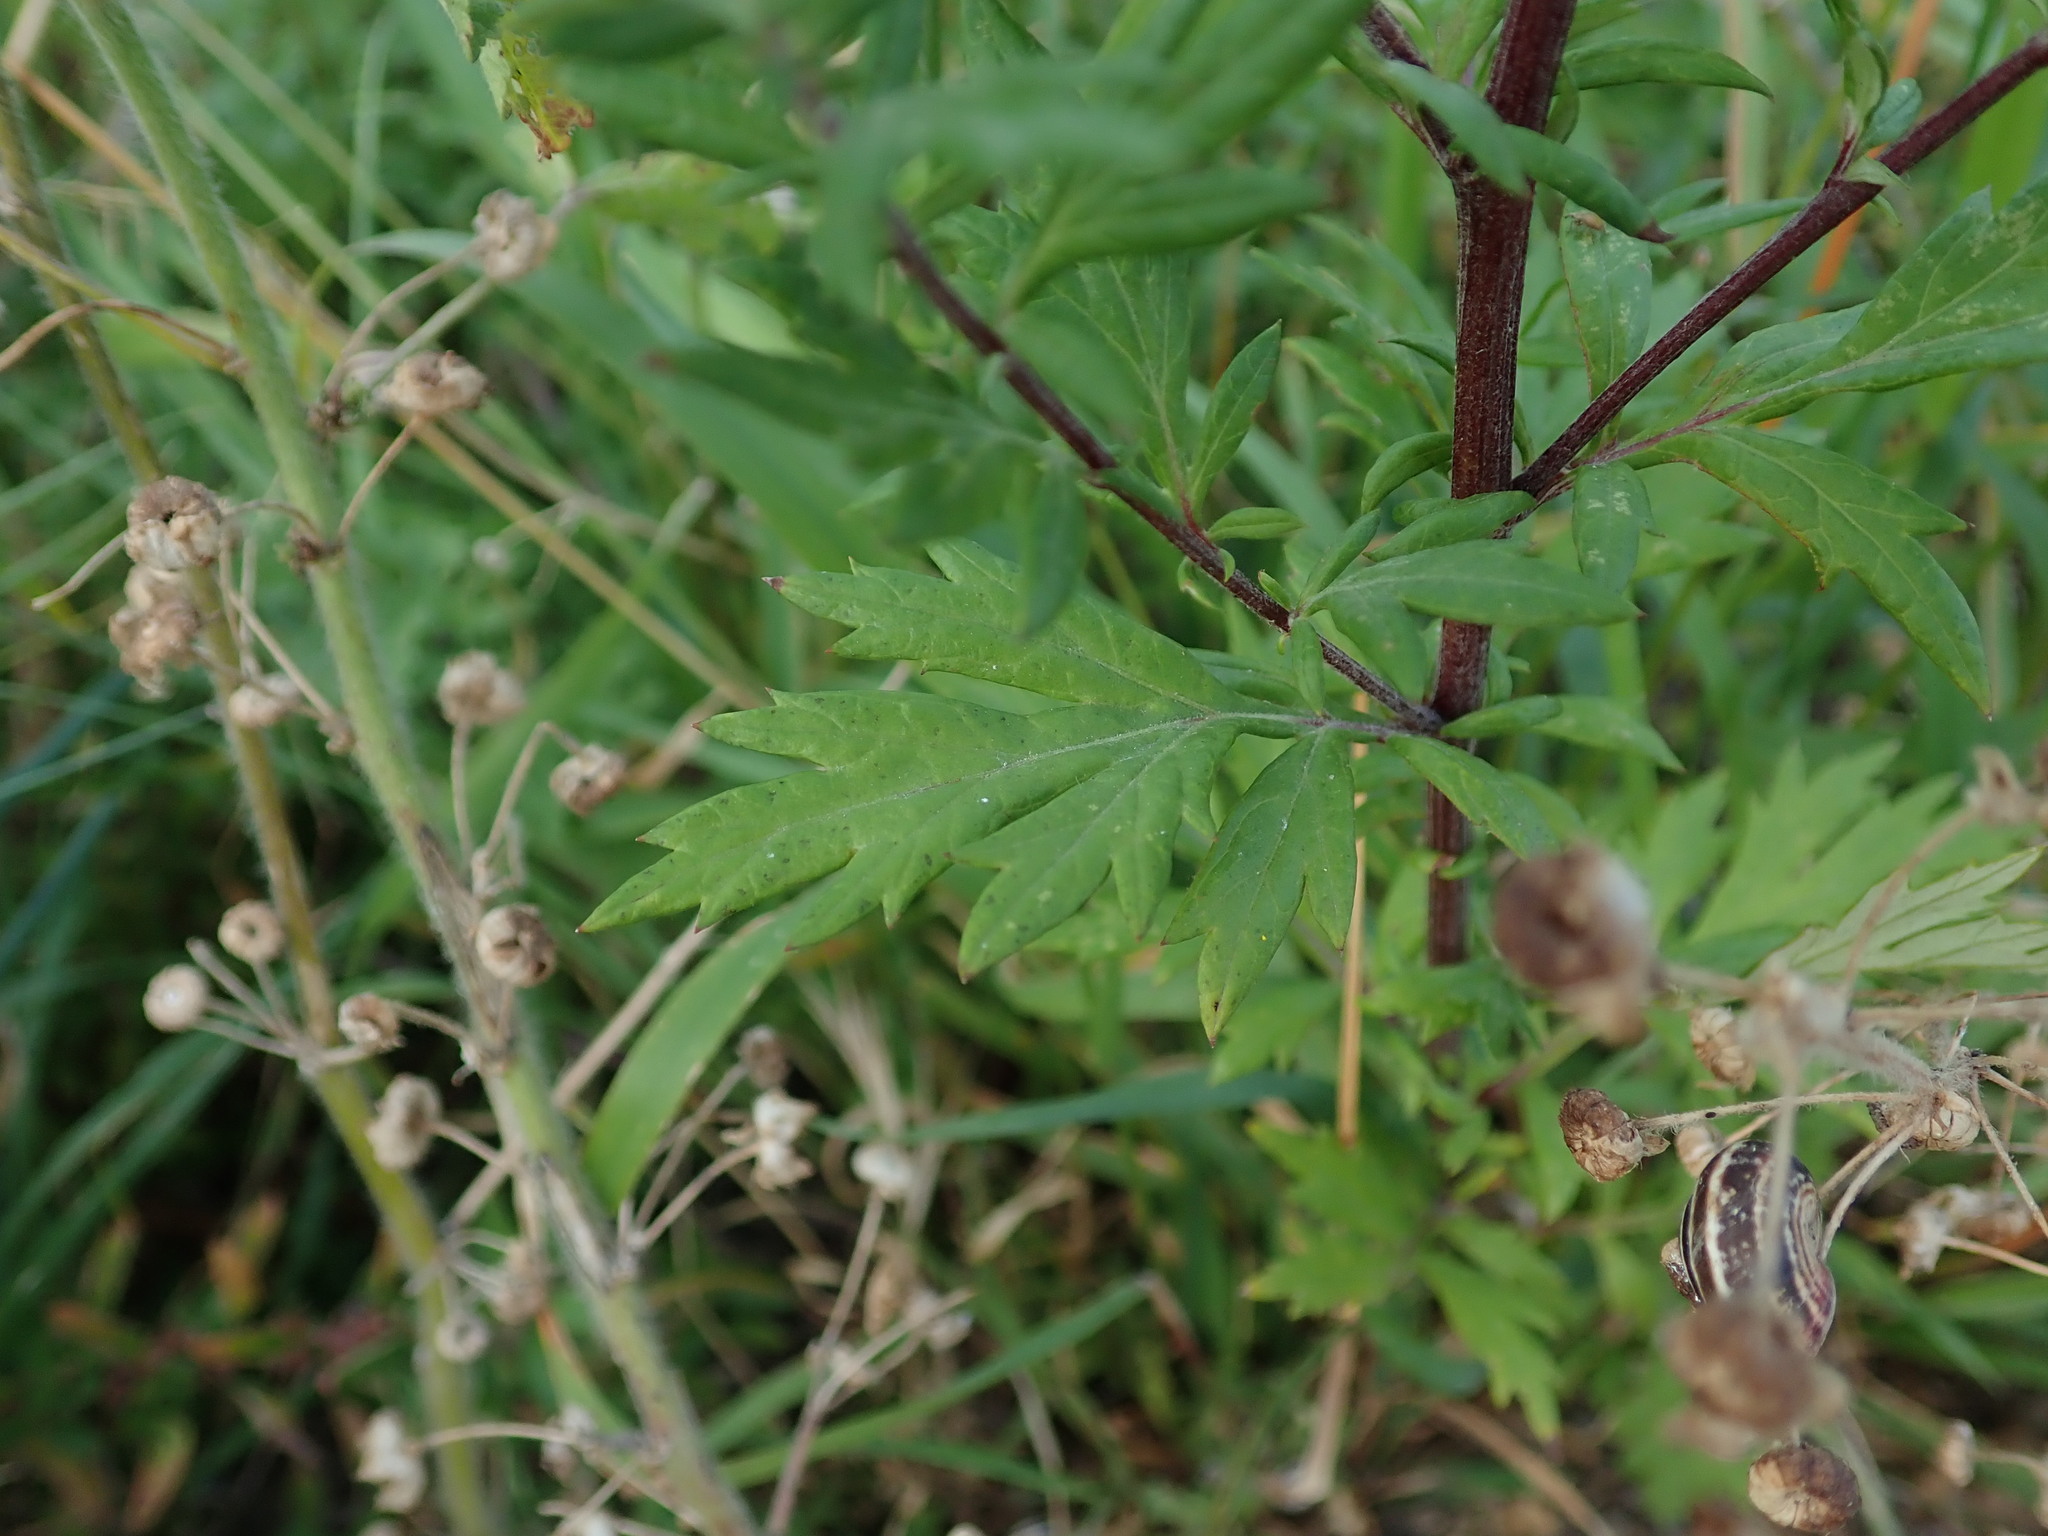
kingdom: Plantae
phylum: Tracheophyta
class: Magnoliopsida
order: Asterales
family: Asteraceae
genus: Artemisia
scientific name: Artemisia vulgaris
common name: Mugwort
